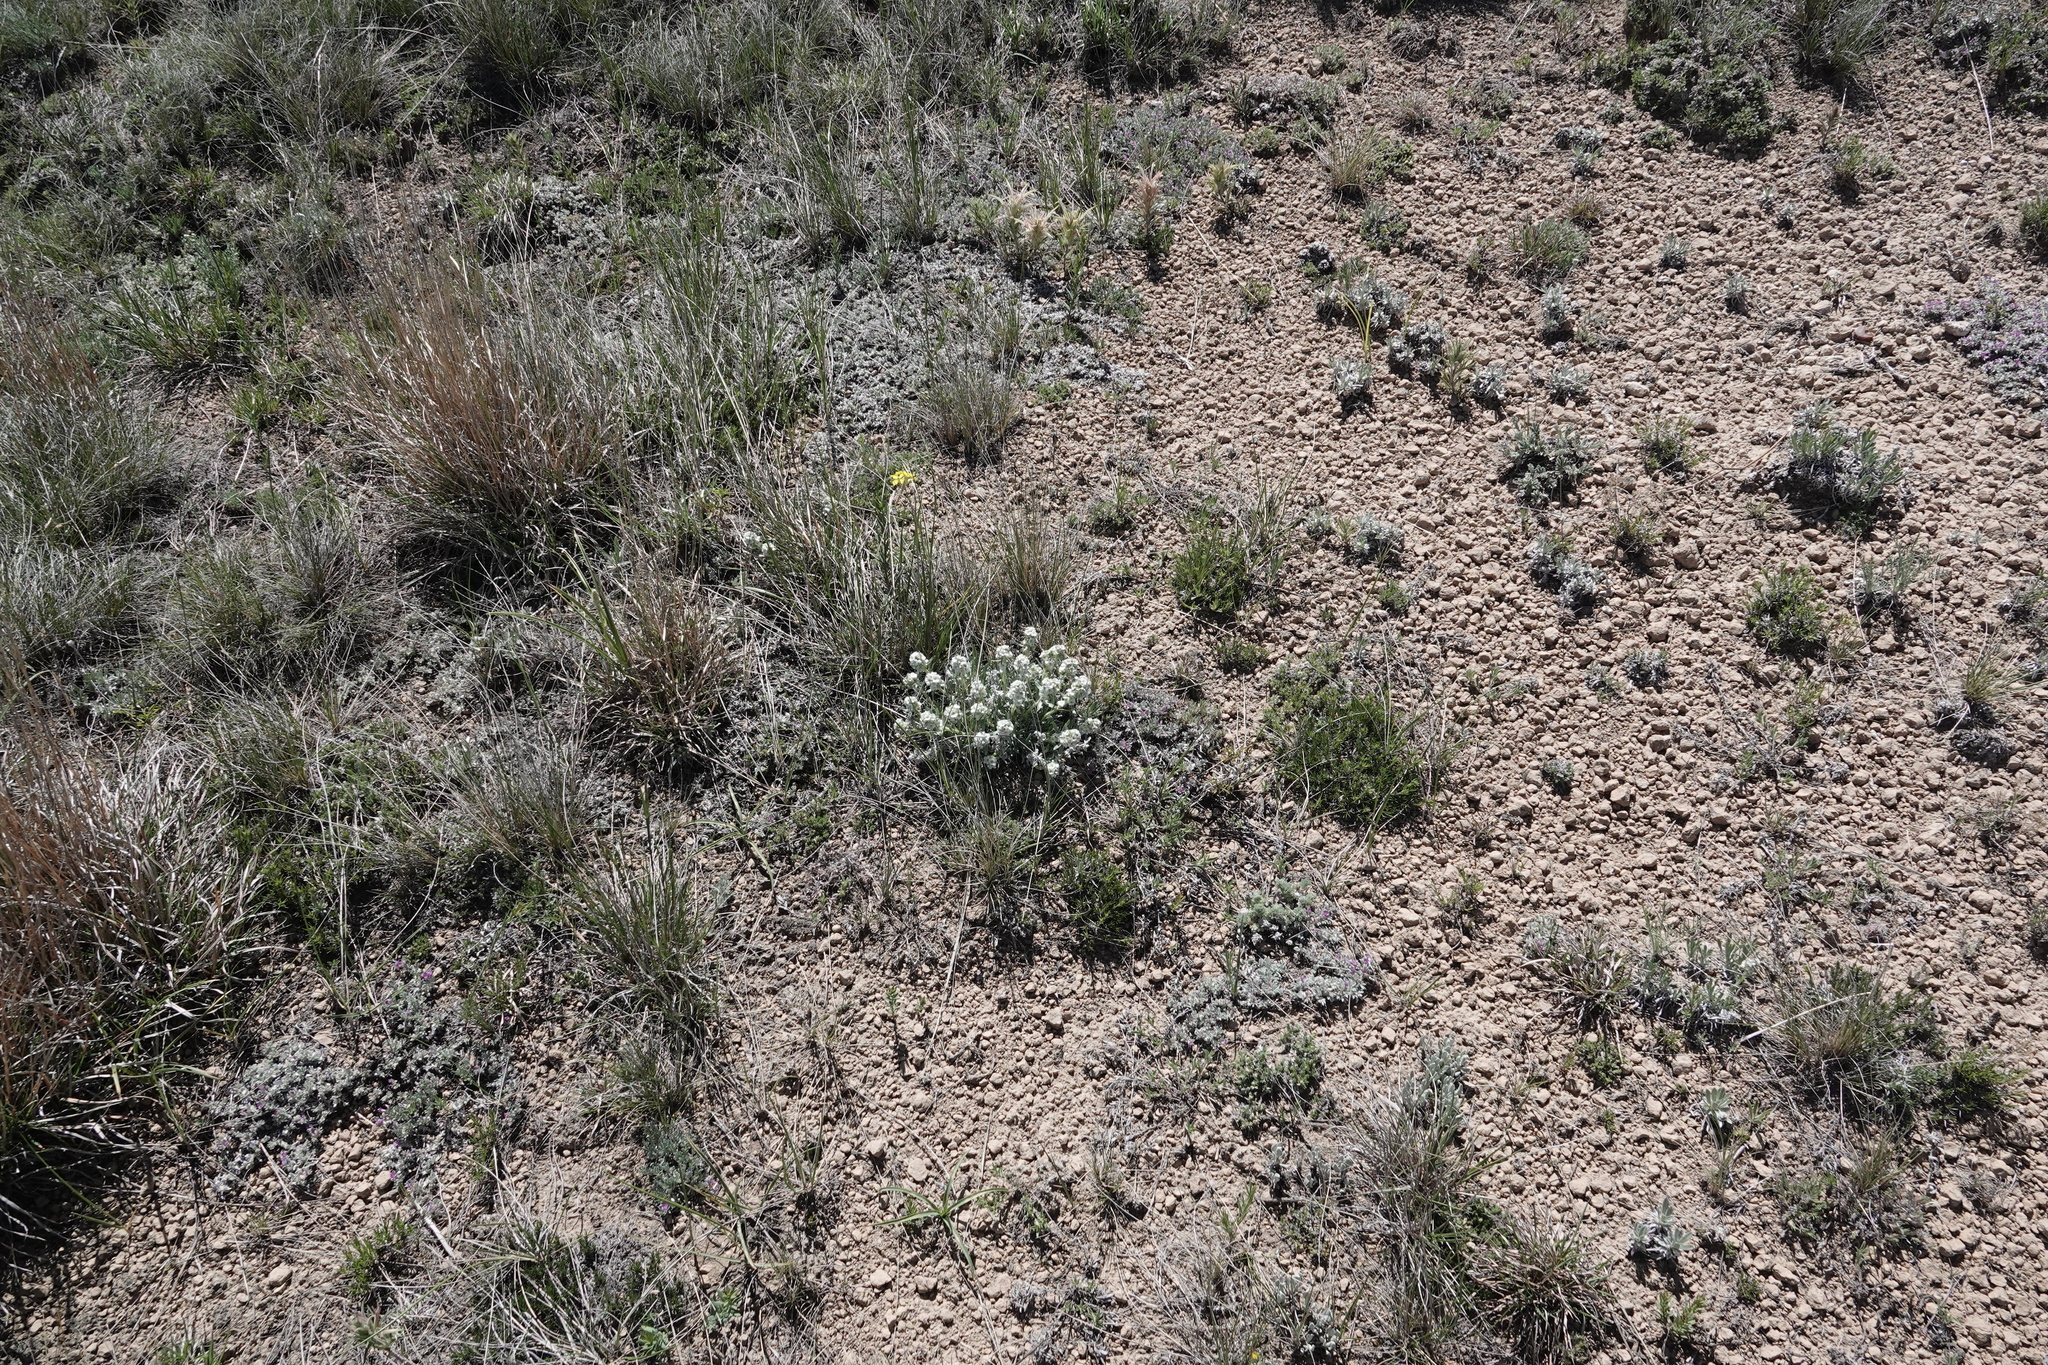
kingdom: Plantae
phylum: Tracheophyta
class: Magnoliopsida
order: Boraginales
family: Boraginaceae
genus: Oreocarya
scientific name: Oreocarya glomerata
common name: Macoun's cryptantha
